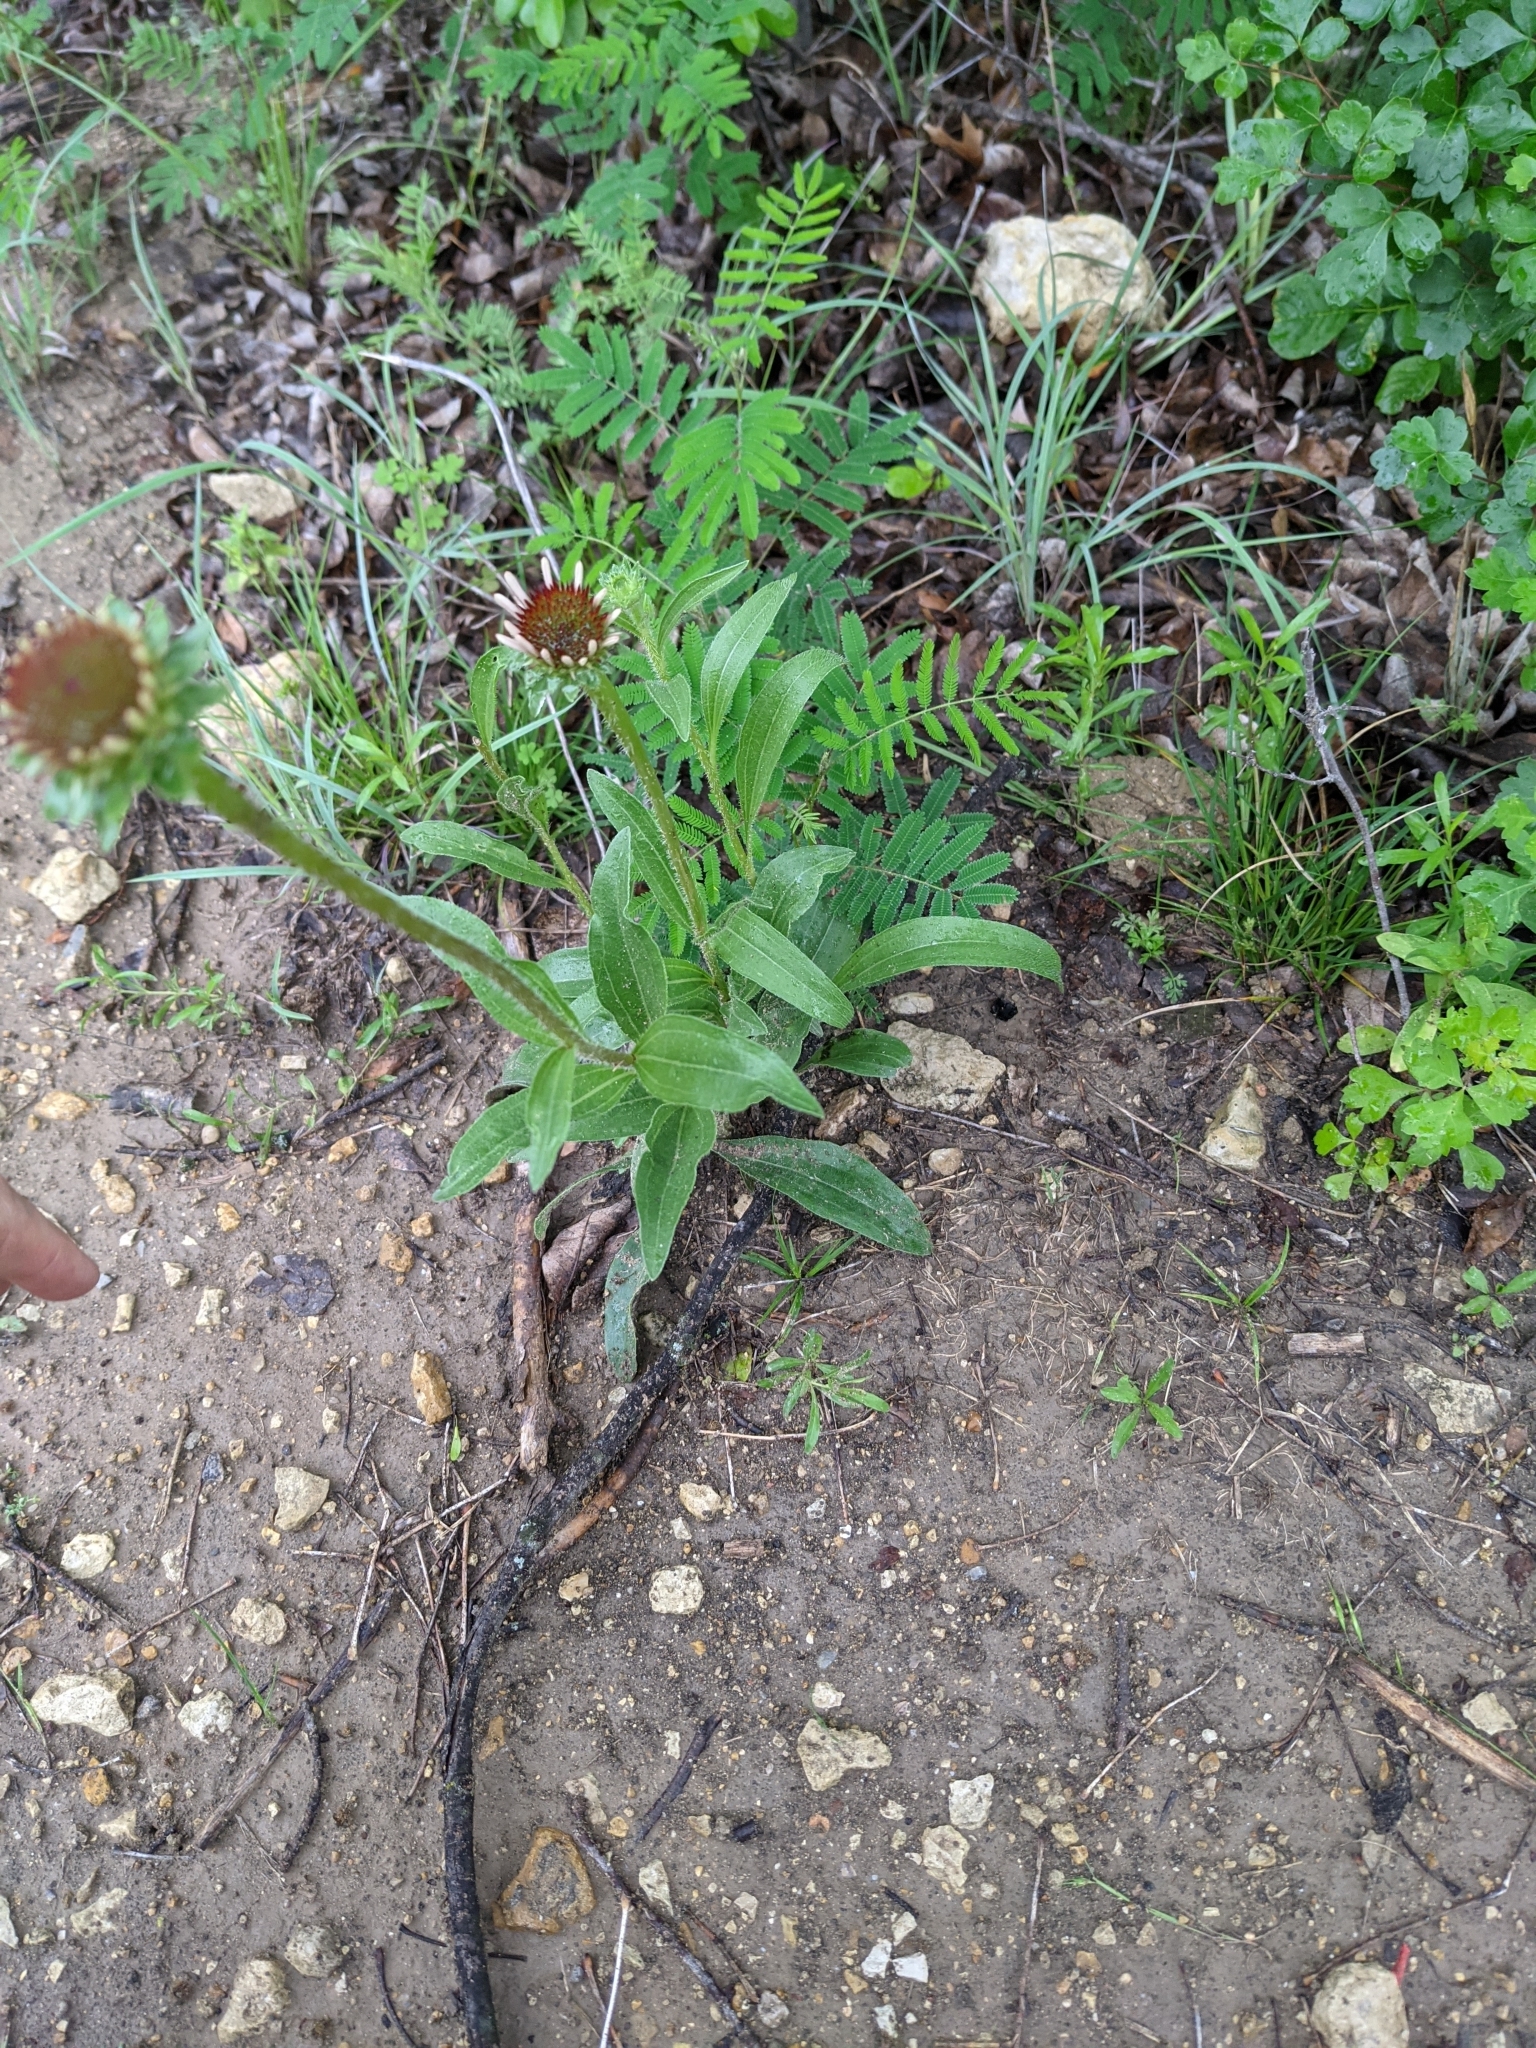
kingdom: Plantae
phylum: Tracheophyta
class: Magnoliopsida
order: Asterales
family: Asteraceae
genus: Echinacea
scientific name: Echinacea angustifolia
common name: Black-sampson echinacea
